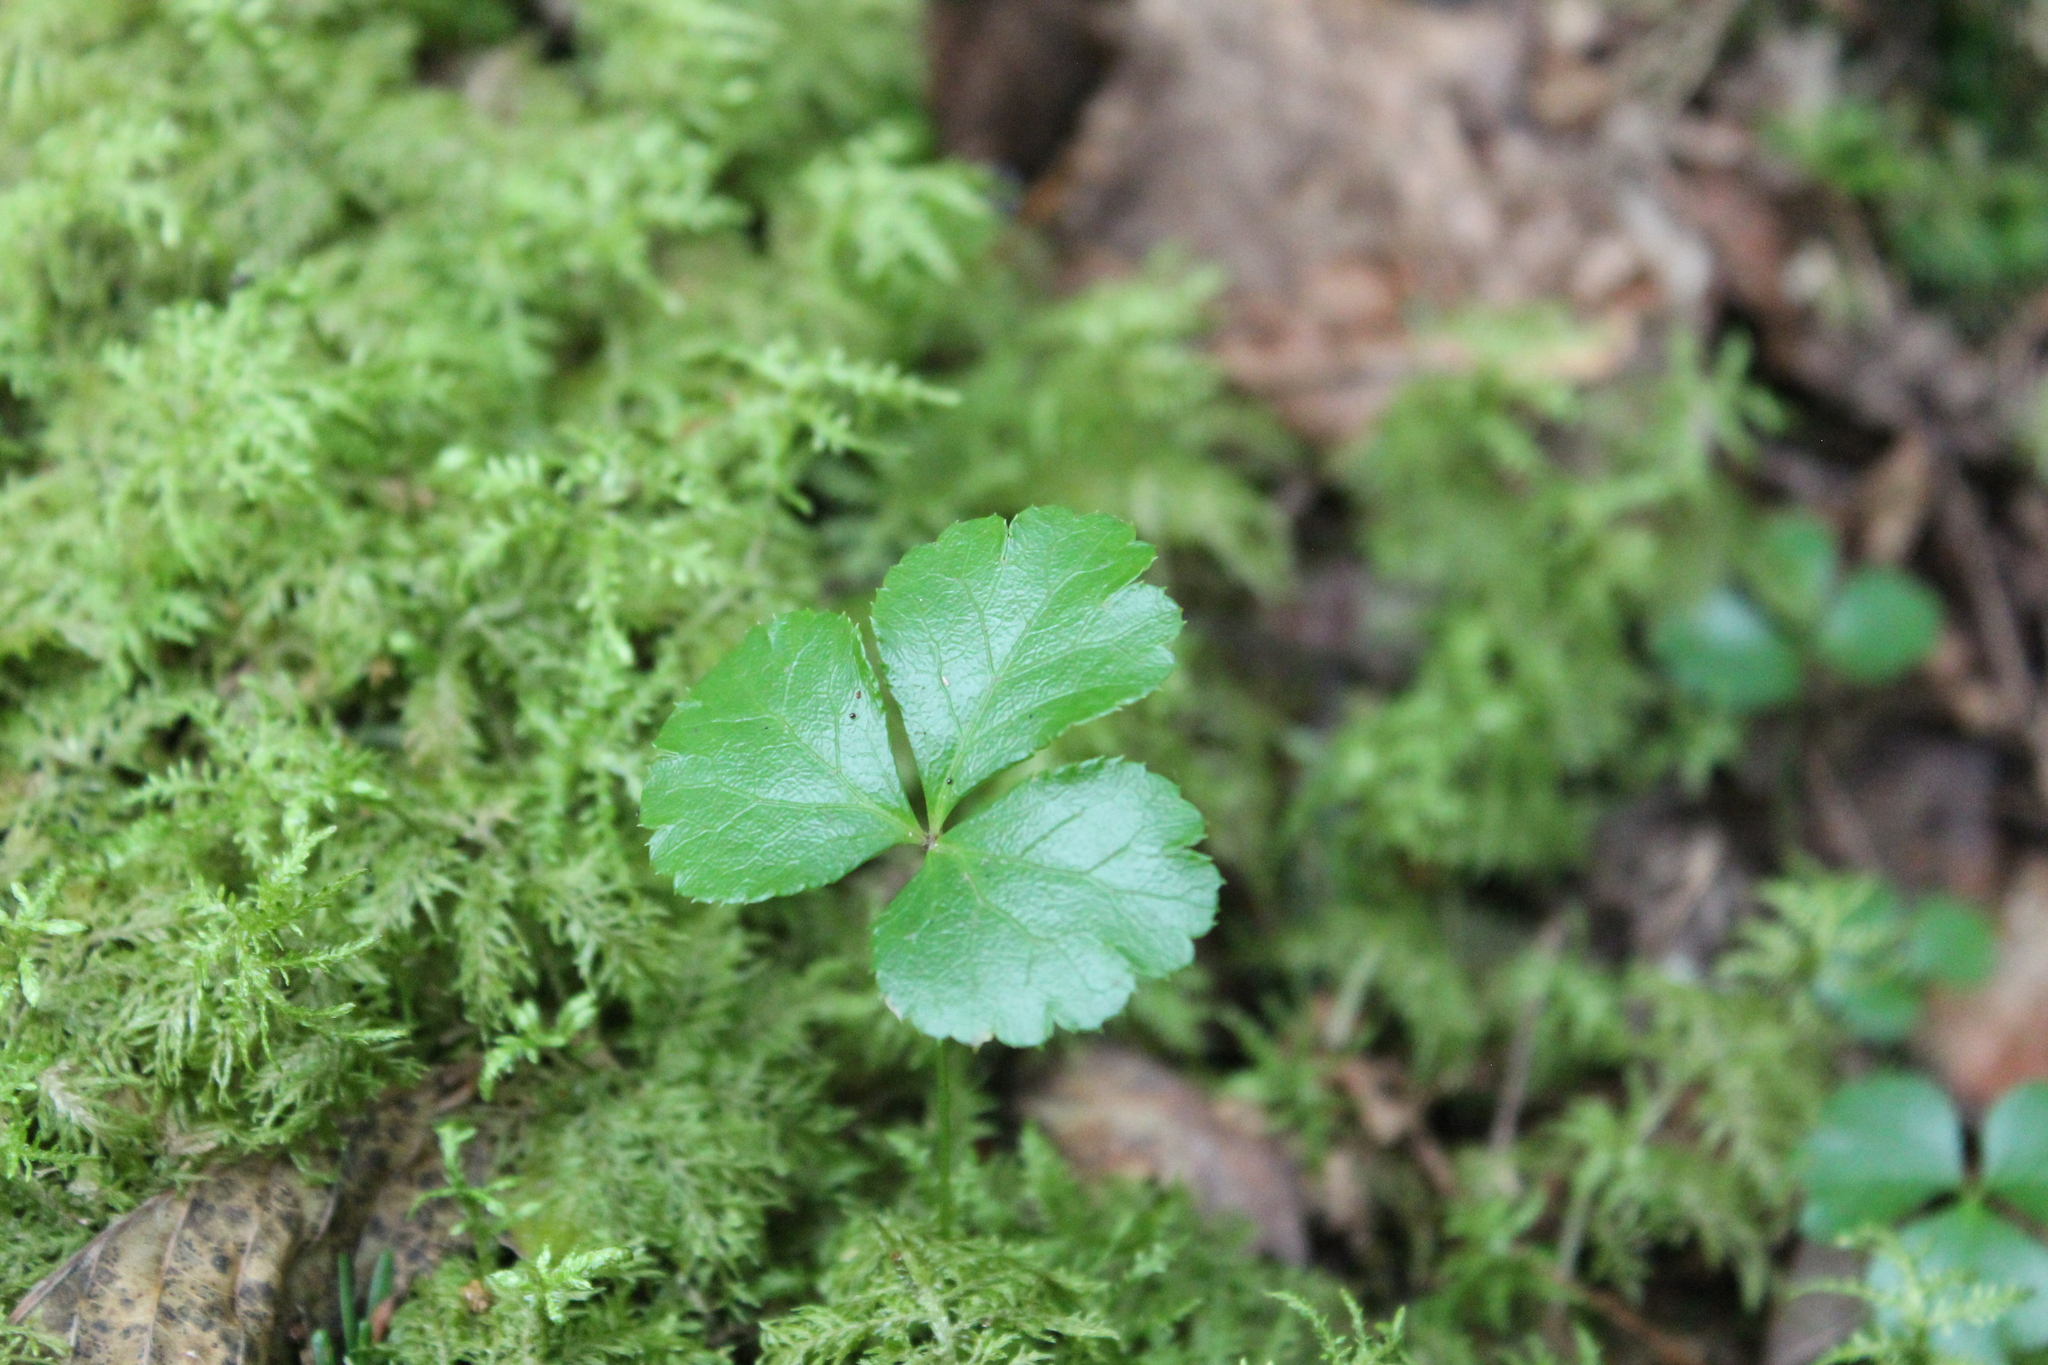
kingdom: Plantae
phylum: Tracheophyta
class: Magnoliopsida
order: Ranunculales
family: Ranunculaceae
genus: Coptis
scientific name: Coptis trifolia
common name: Canker-root
